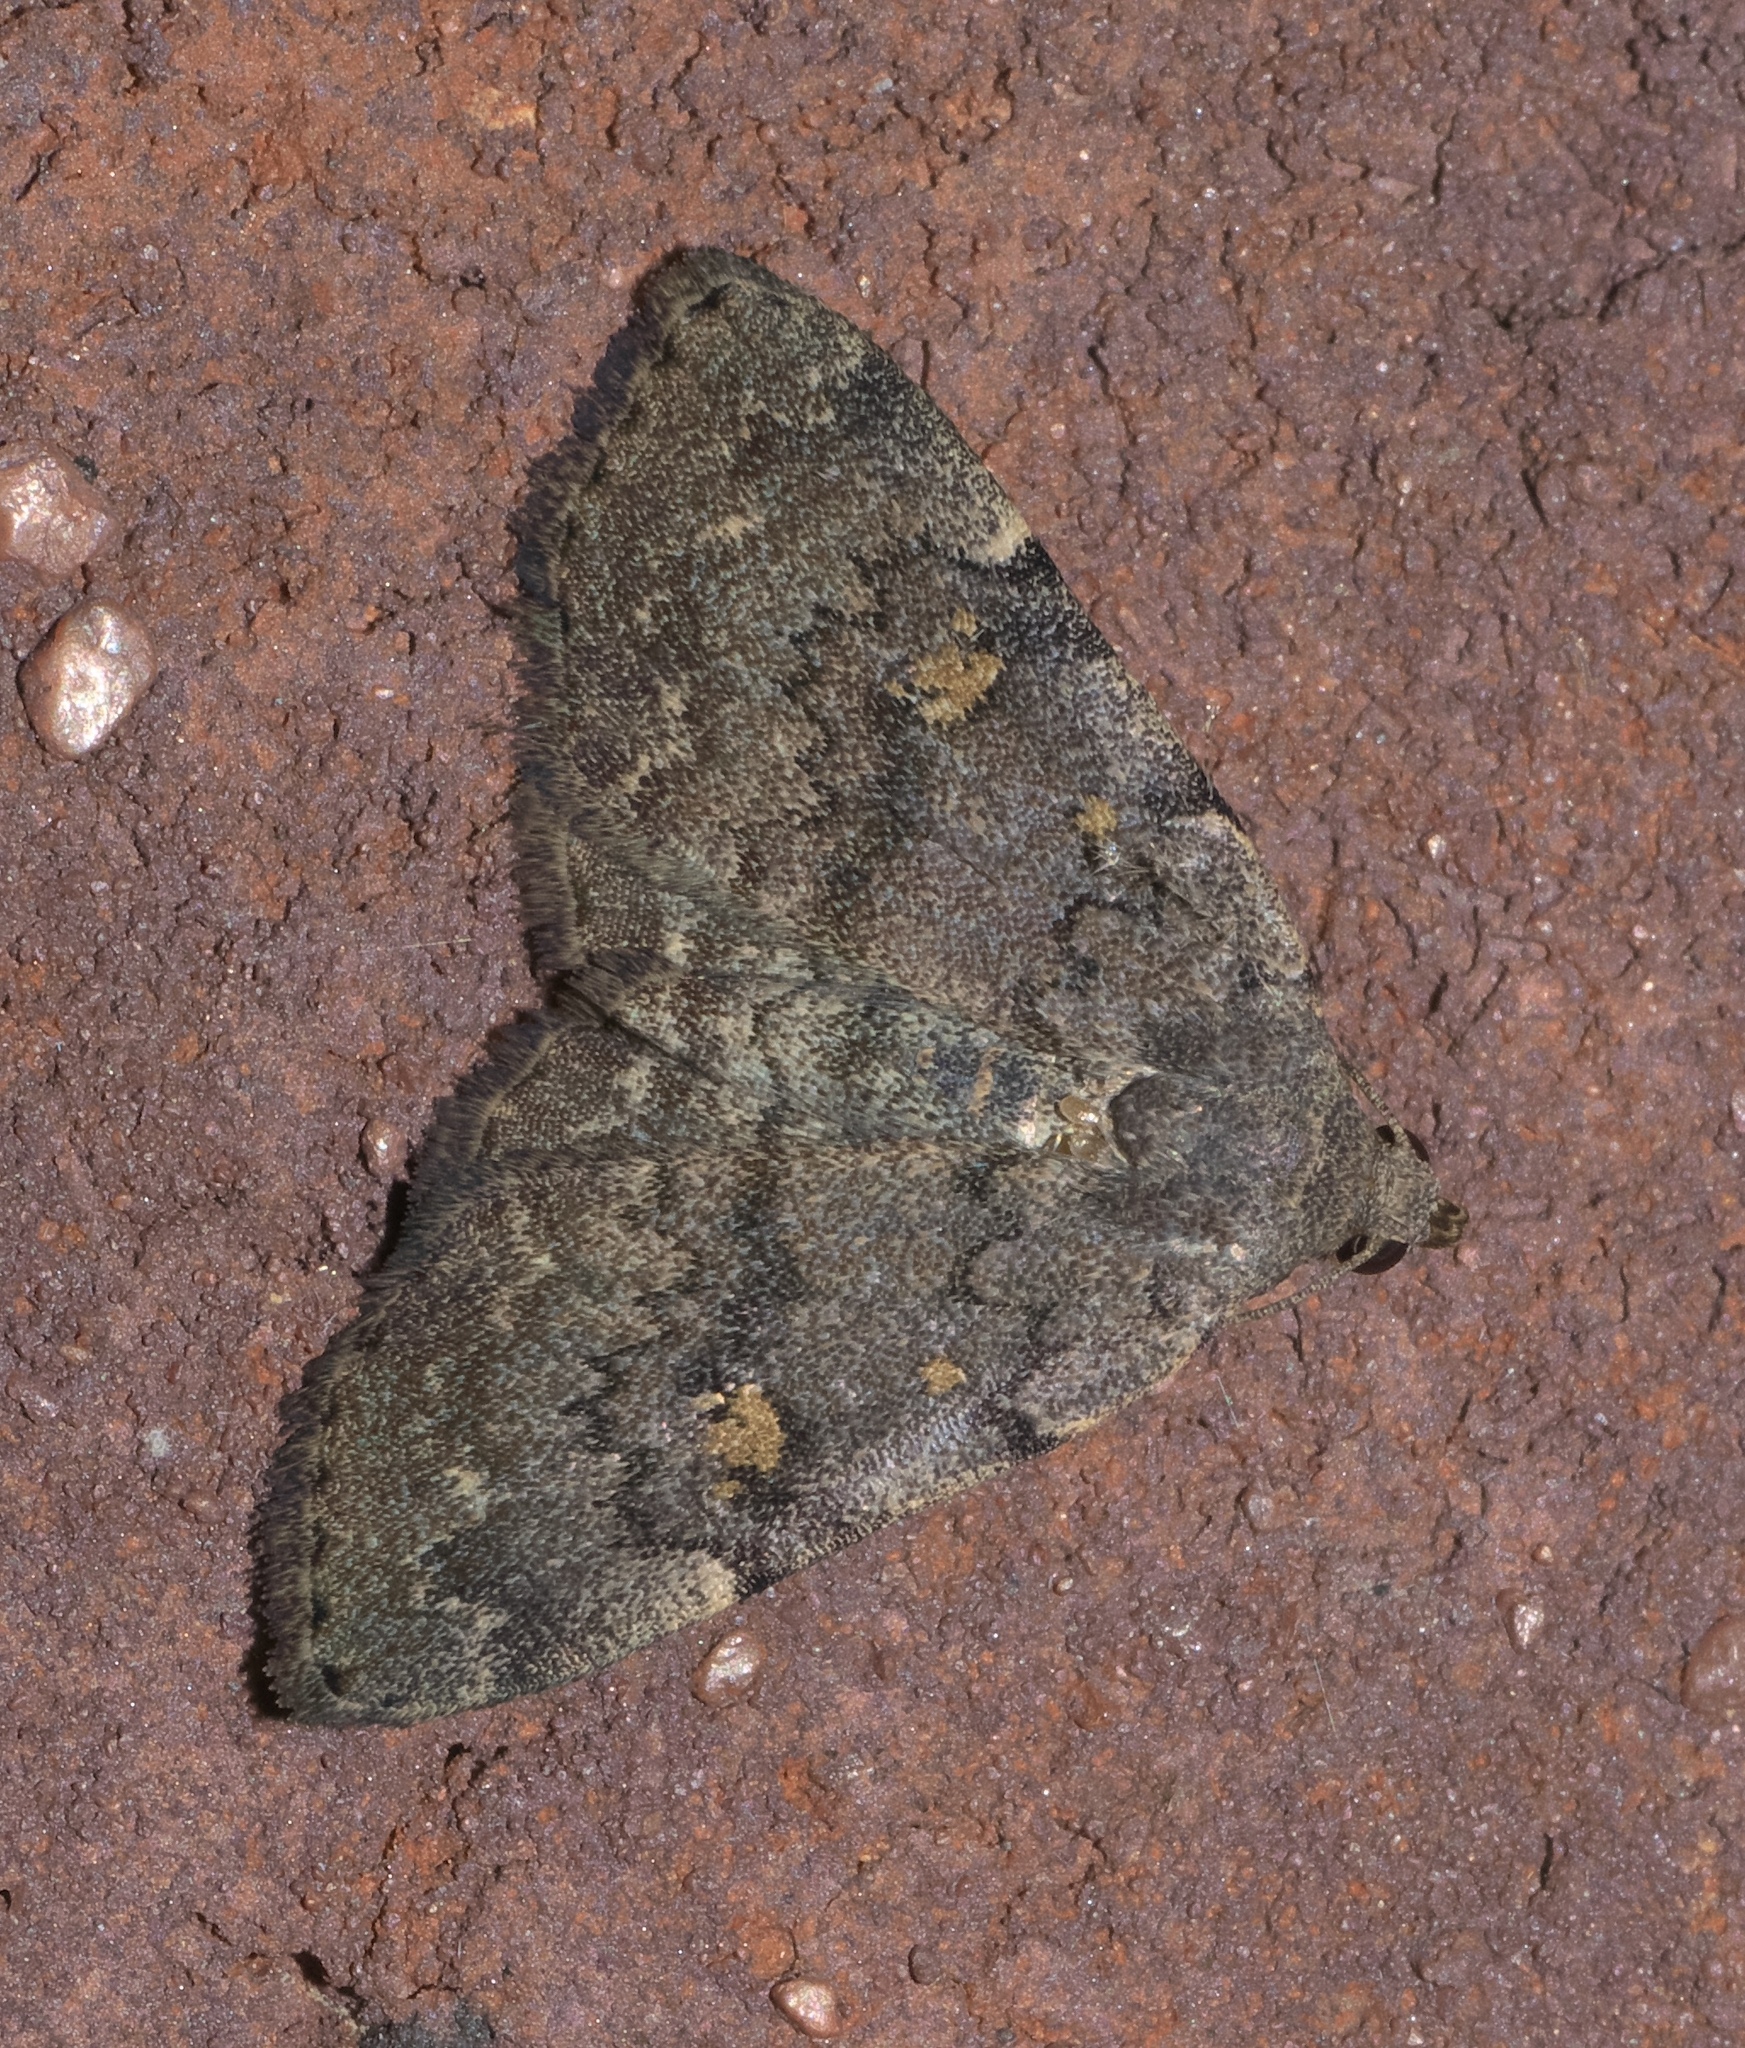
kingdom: Animalia
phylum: Arthropoda
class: Insecta
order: Lepidoptera
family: Erebidae
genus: Idia
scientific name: Idia aemula
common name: Common idia moth
